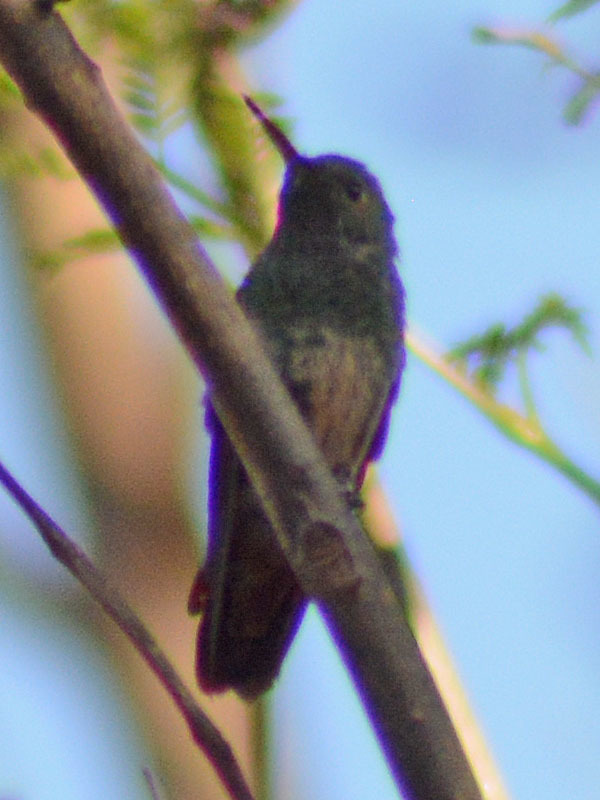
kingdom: Animalia
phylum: Chordata
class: Aves
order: Apodiformes
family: Trochilidae
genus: Saucerottia
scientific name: Saucerottia beryllina
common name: Berylline hummingbird
